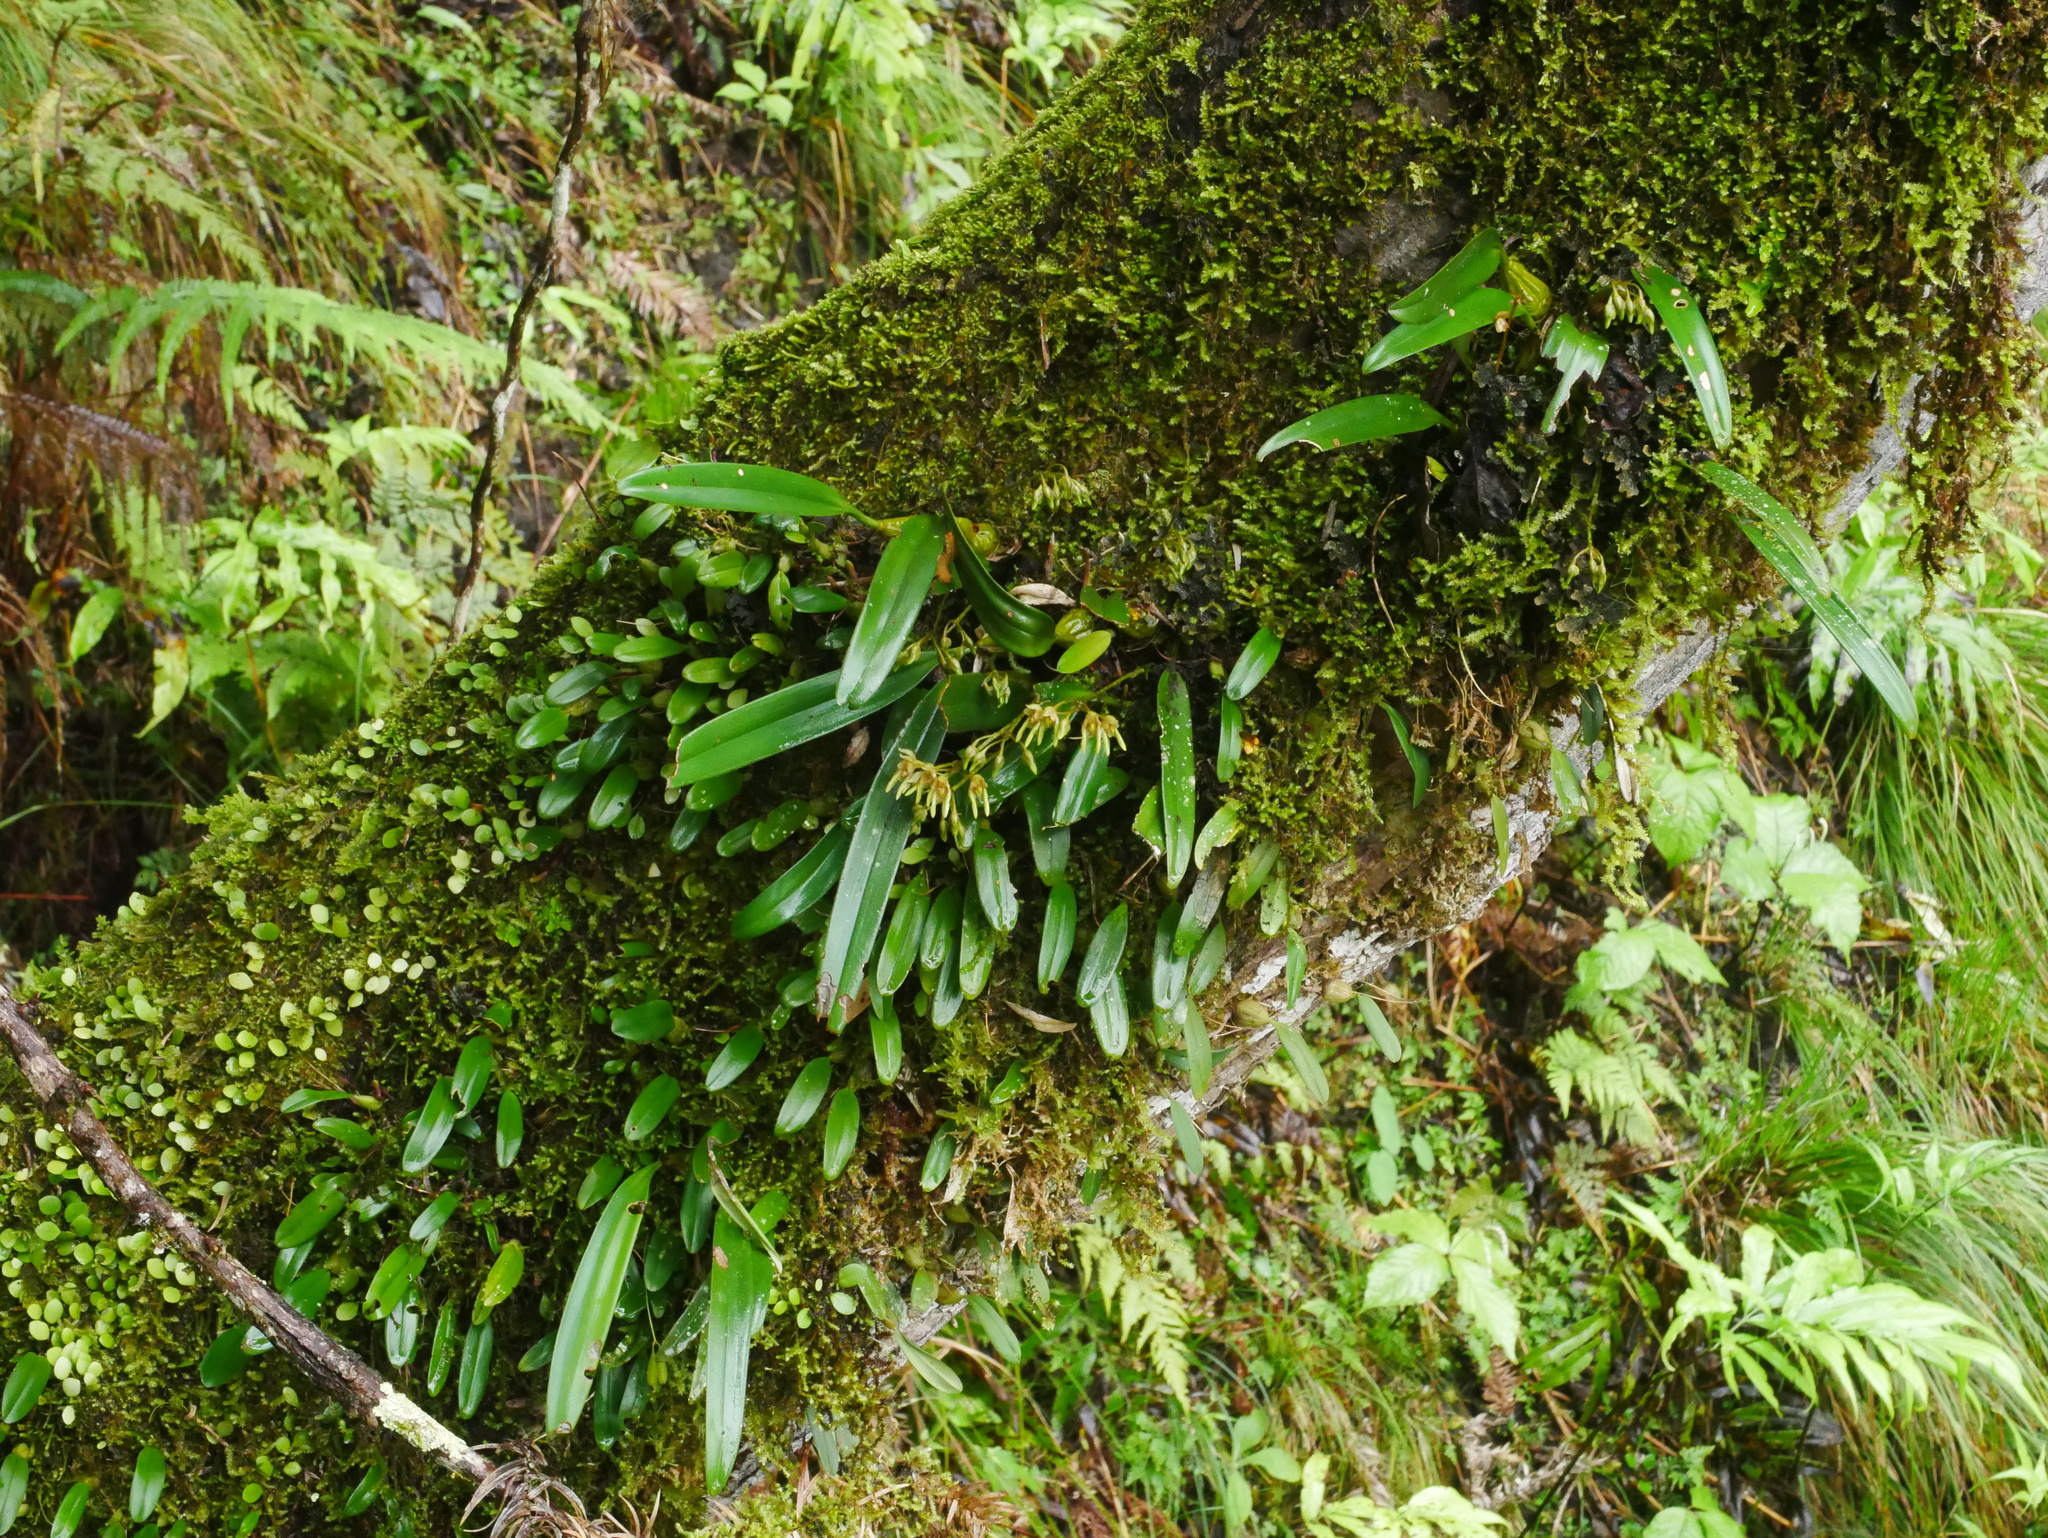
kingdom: Plantae
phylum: Tracheophyta
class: Liliopsida
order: Asparagales
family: Orchidaceae
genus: Bulbophyllum
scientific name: Bulbophyllum umbellatum
